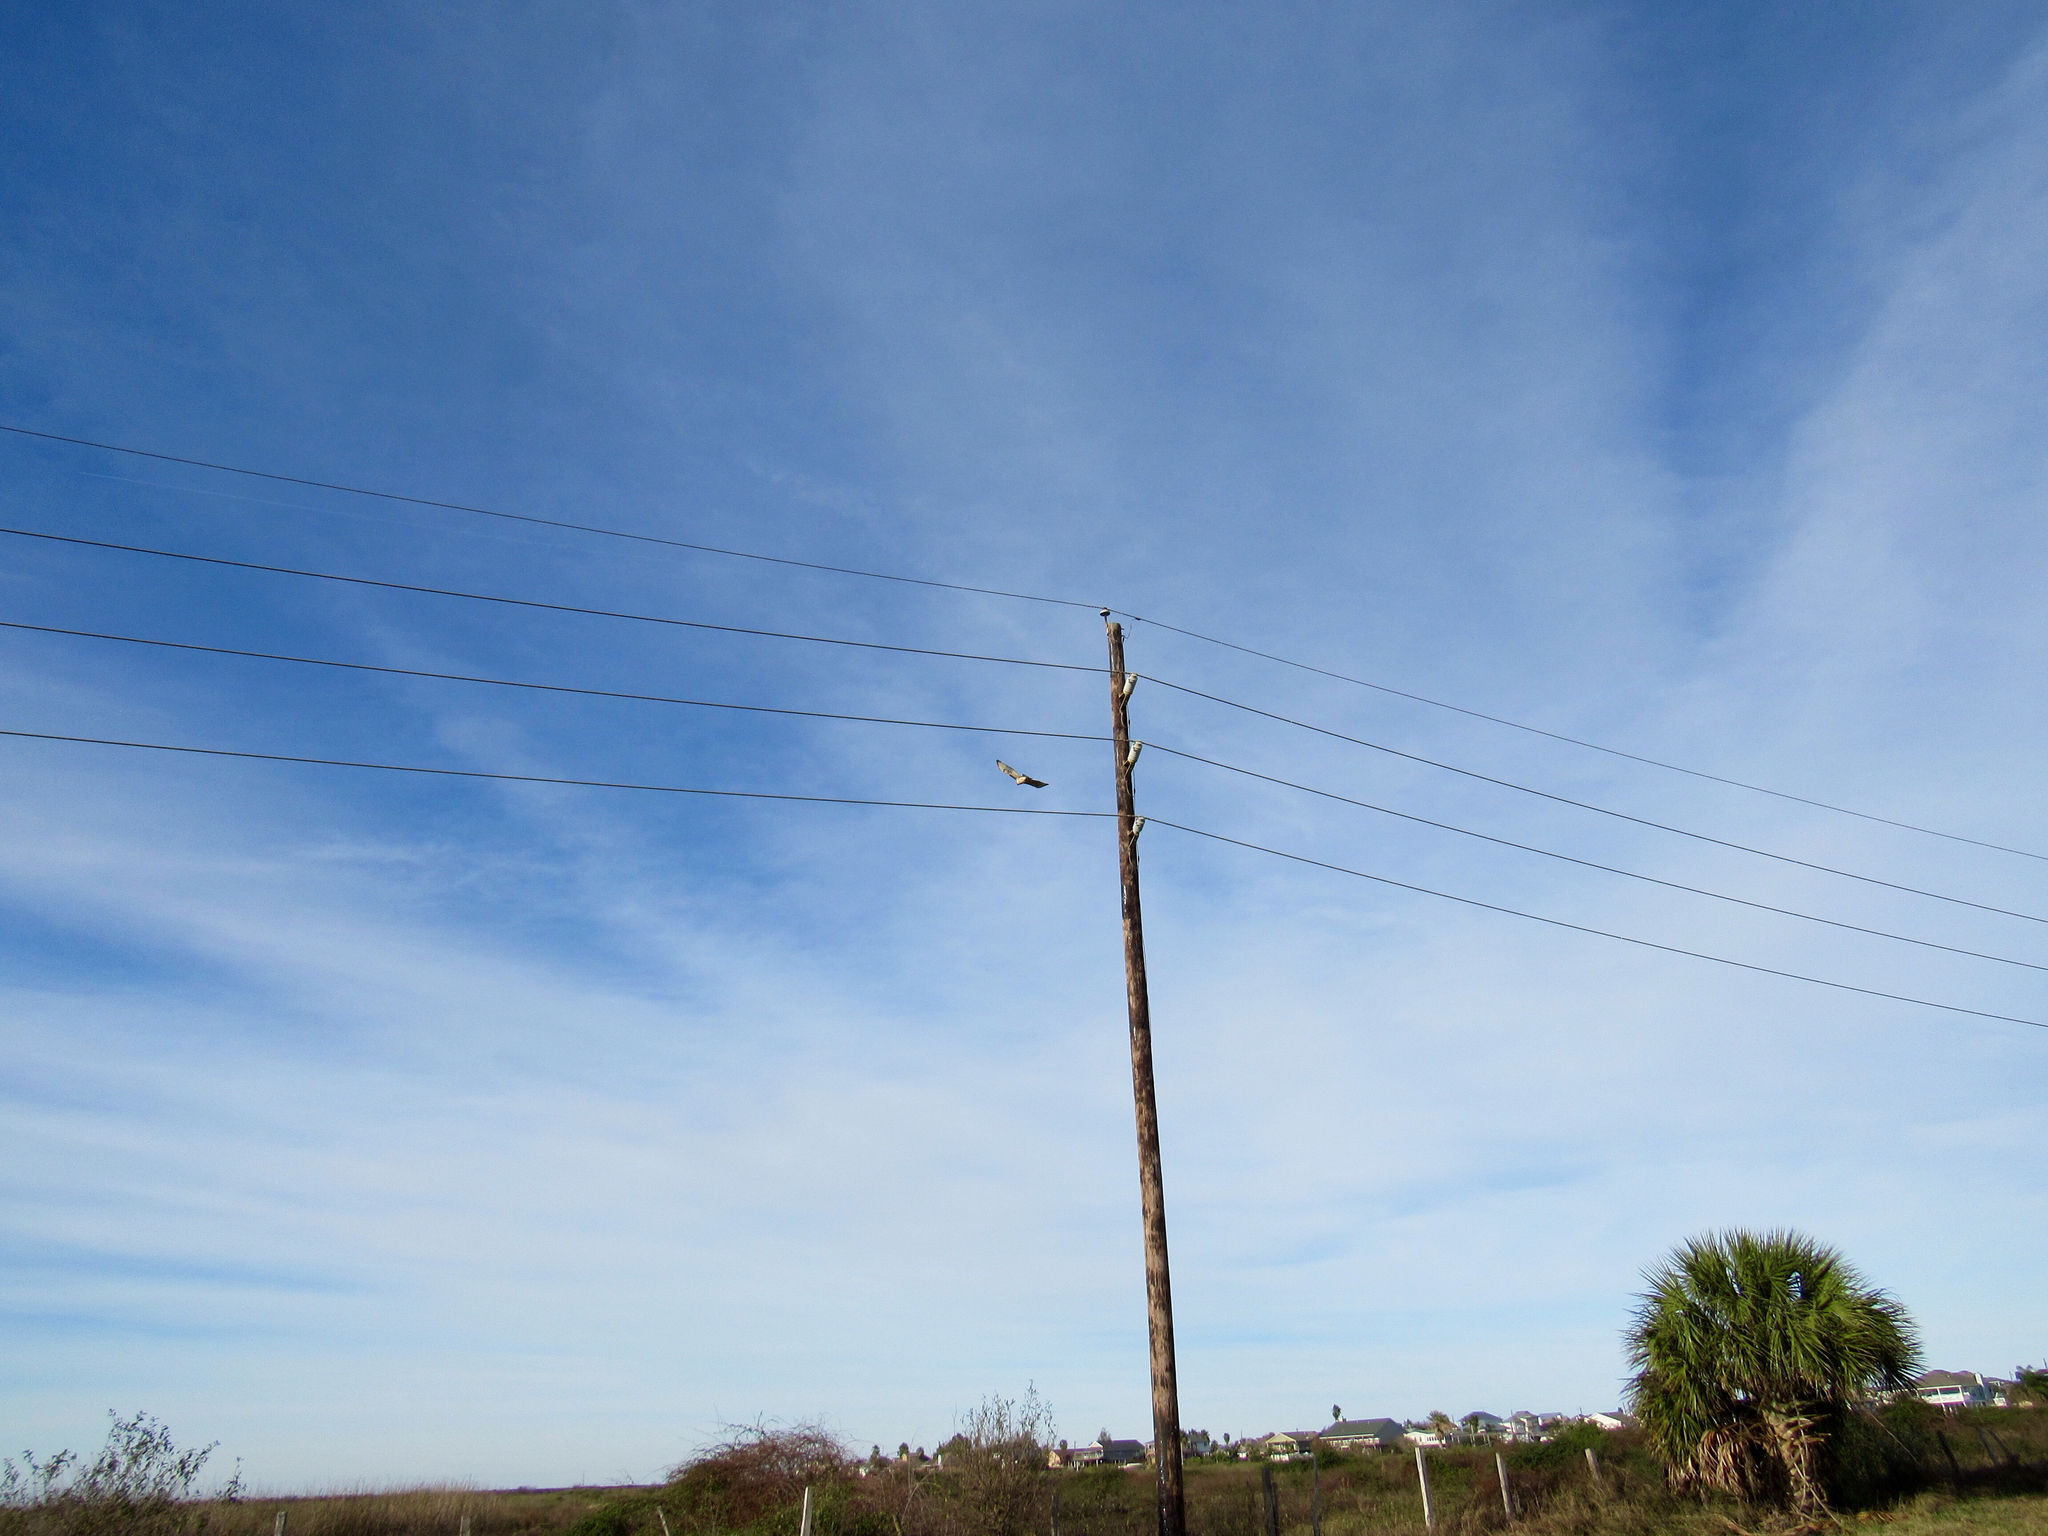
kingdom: Animalia
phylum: Chordata
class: Aves
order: Accipitriformes
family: Accipitridae
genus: Buteo
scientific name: Buteo jamaicensis
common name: Red-tailed hawk
